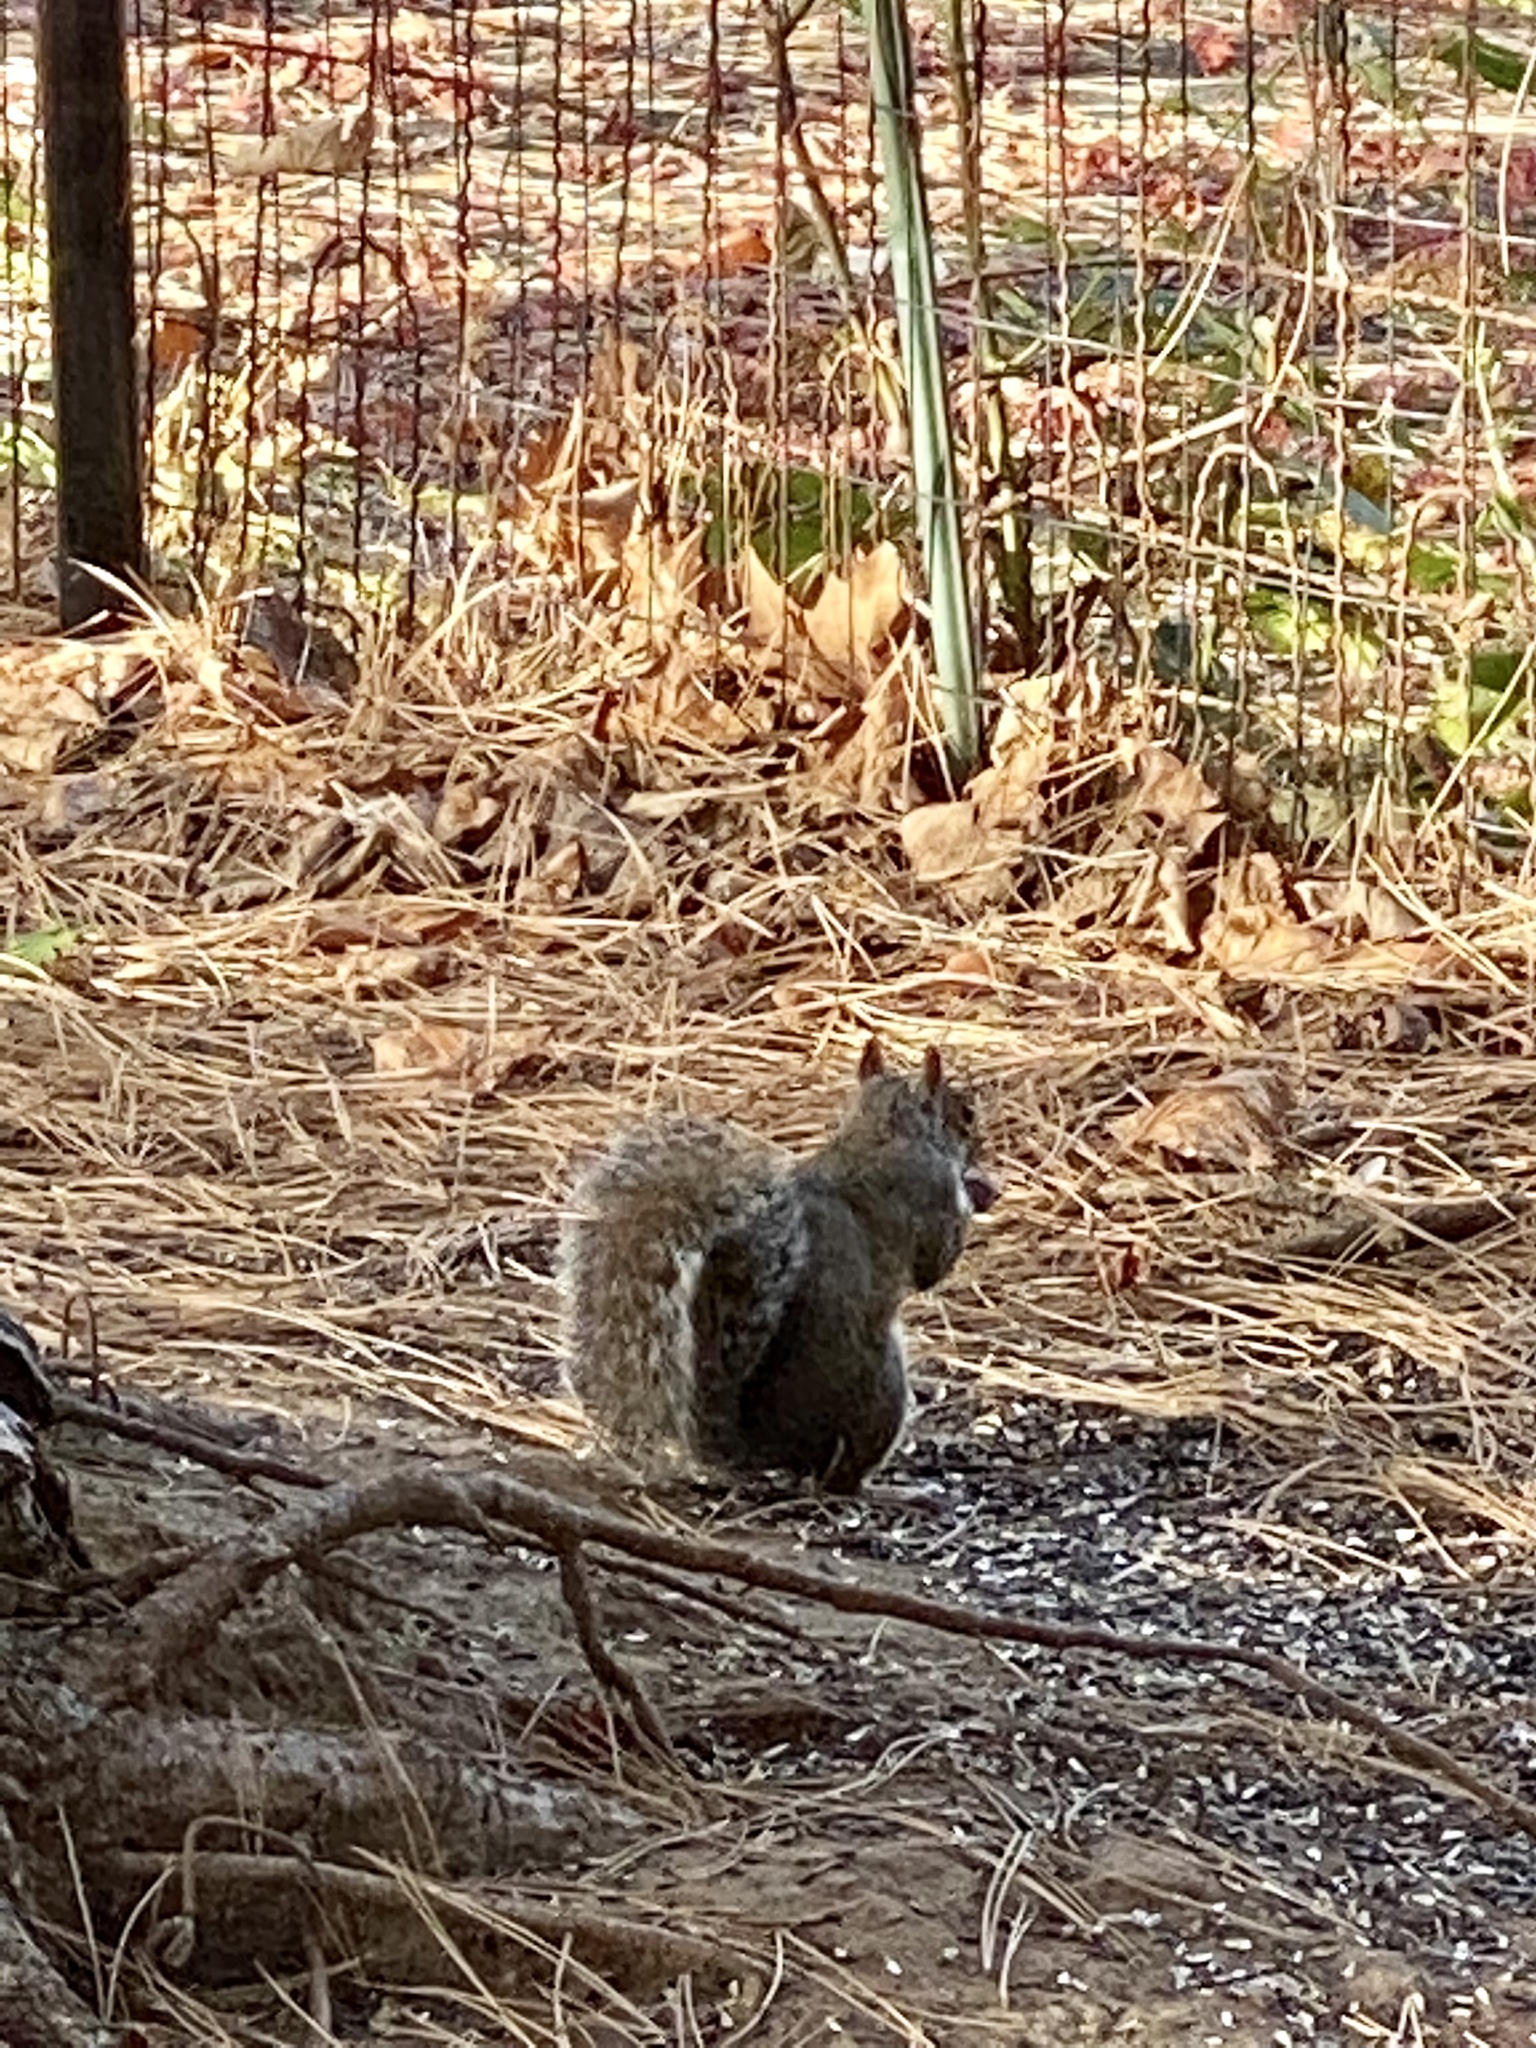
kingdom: Animalia
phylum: Chordata
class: Mammalia
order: Rodentia
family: Sciuridae
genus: Sciurus
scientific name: Sciurus carolinensis
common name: Eastern gray squirrel
